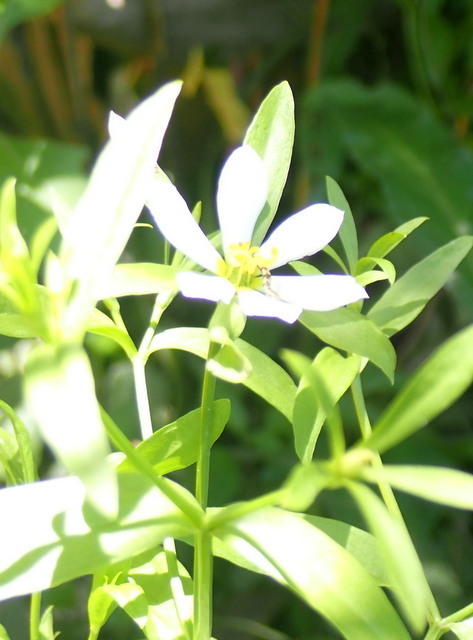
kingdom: Plantae
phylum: Tracheophyta
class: Magnoliopsida
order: Gentianales
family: Gentianaceae
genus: Sabatia
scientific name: Sabatia calycina
